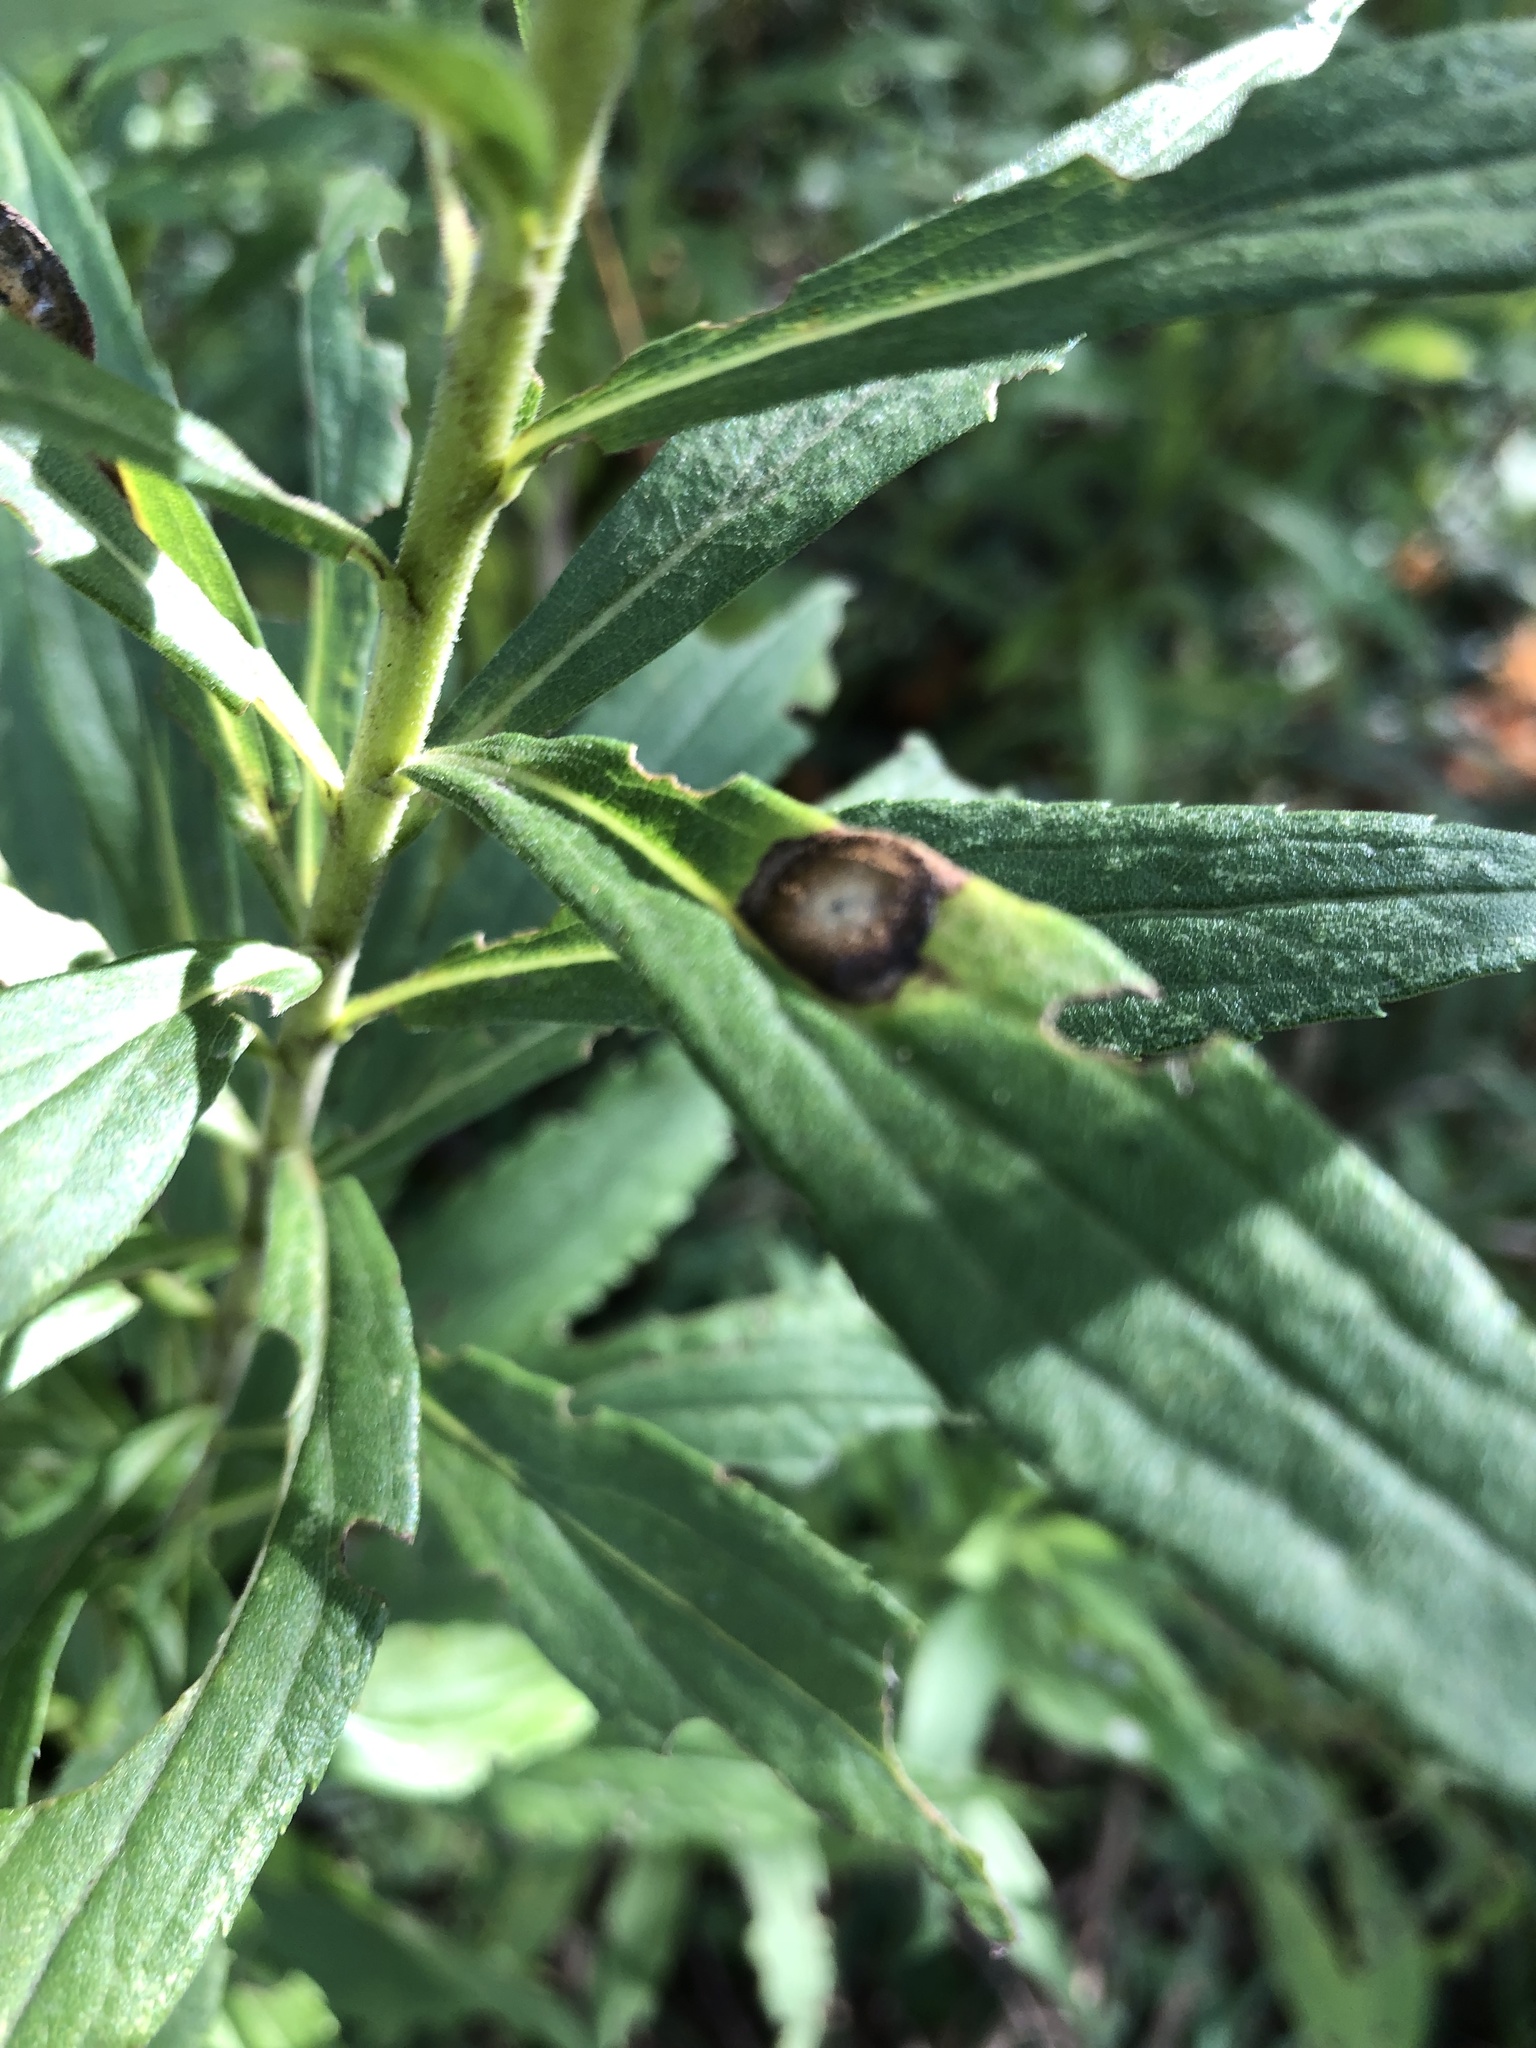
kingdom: Animalia
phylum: Arthropoda
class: Insecta
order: Diptera
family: Cecidomyiidae
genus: Asteromyia
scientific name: Asteromyia carbonifera
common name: Carbonifera goldenrod gall midge
